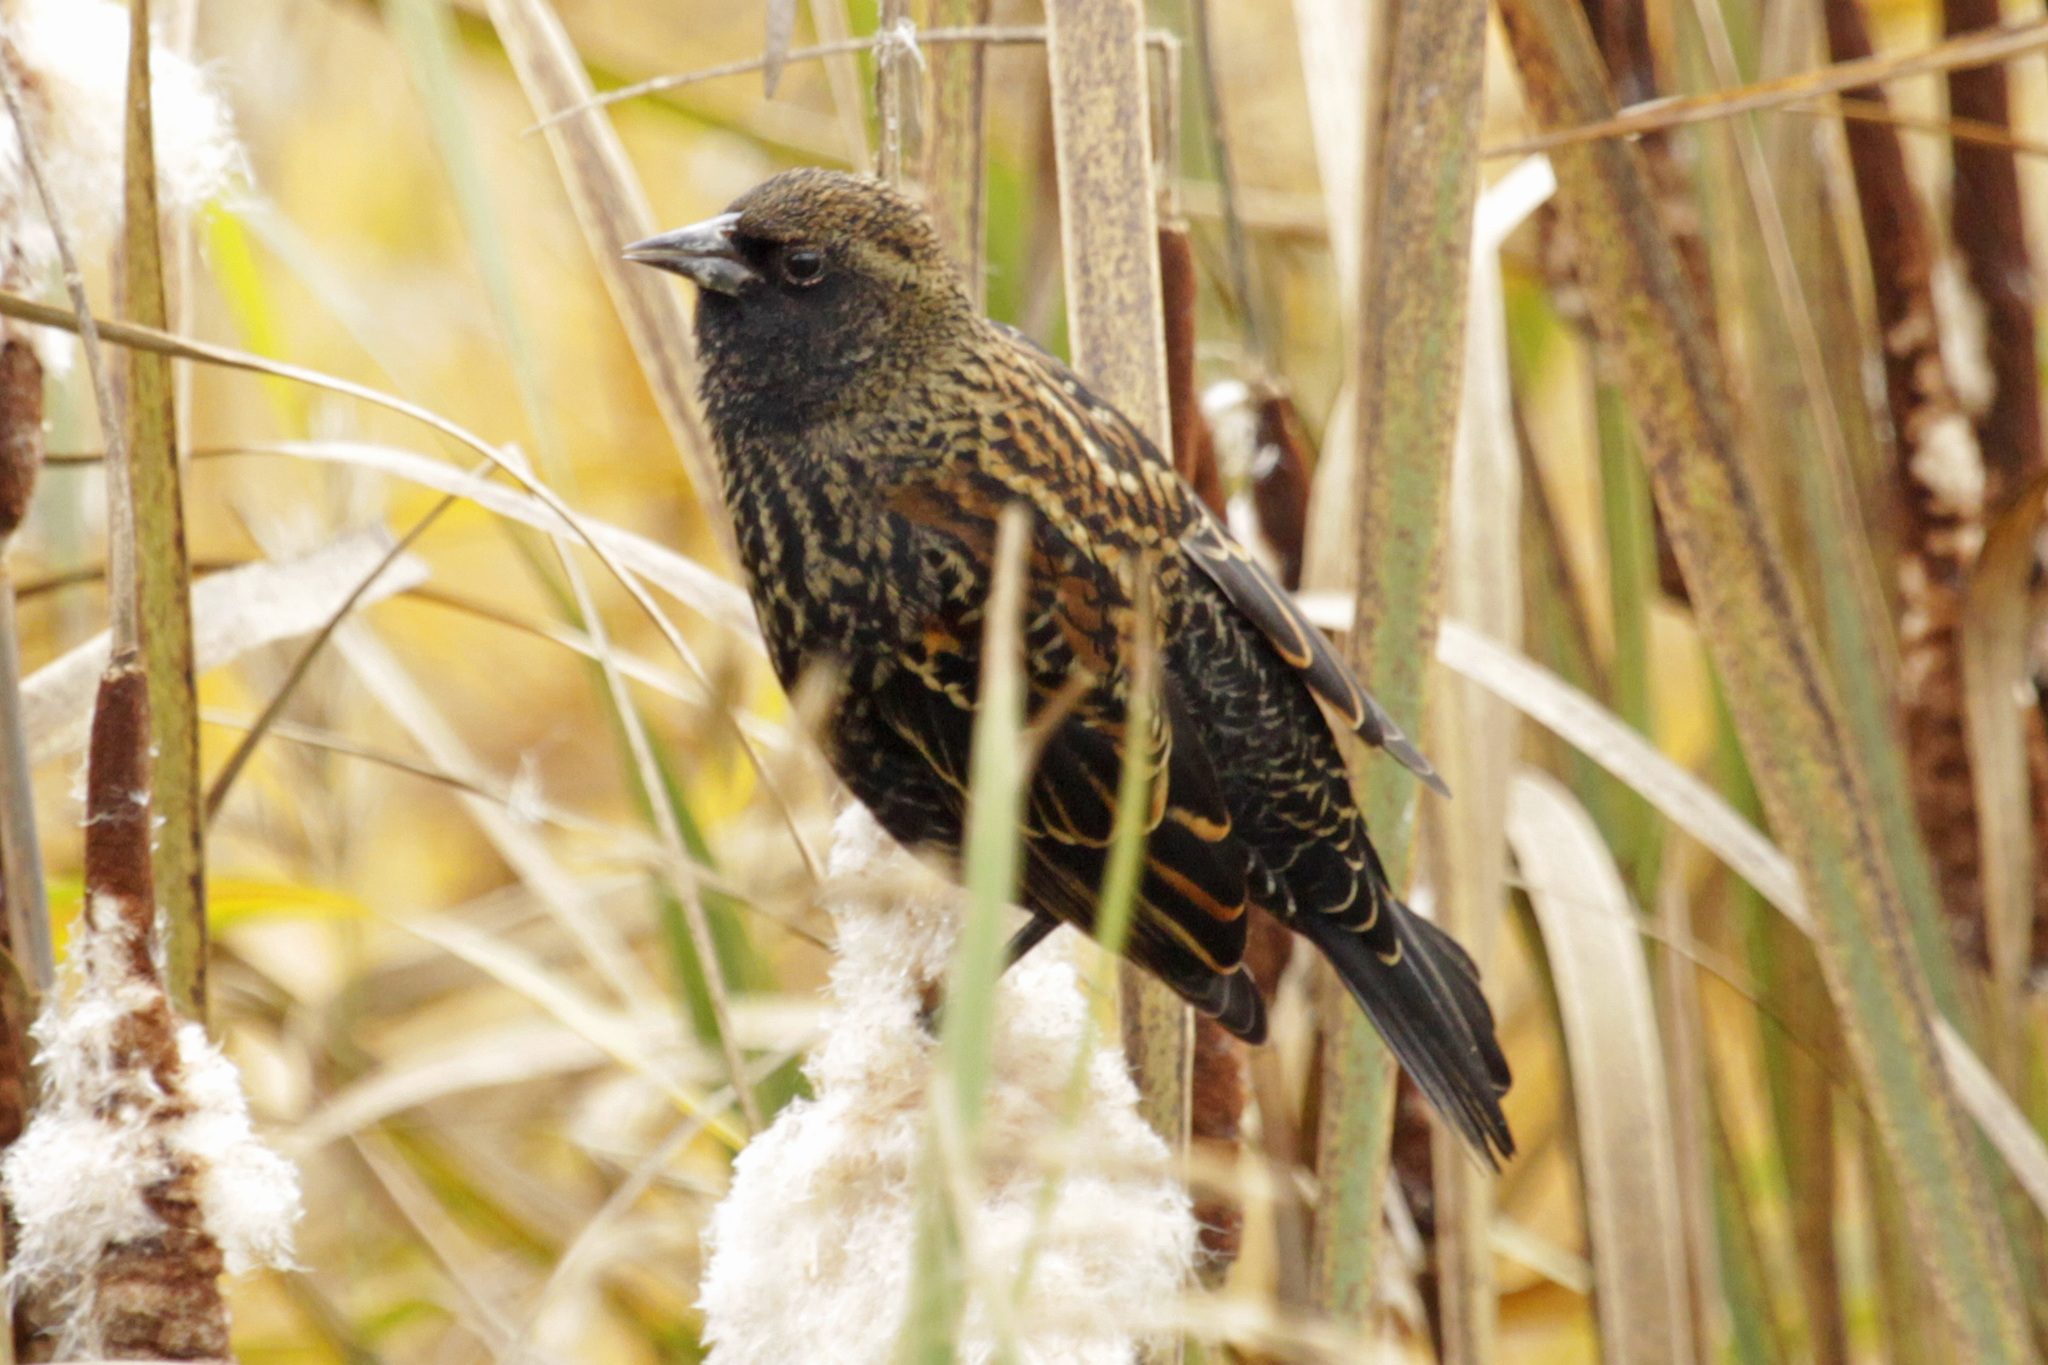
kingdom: Animalia
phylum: Chordata
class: Aves
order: Passeriformes
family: Icteridae
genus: Agelaius
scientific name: Agelaius phoeniceus
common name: Red-winged blackbird
